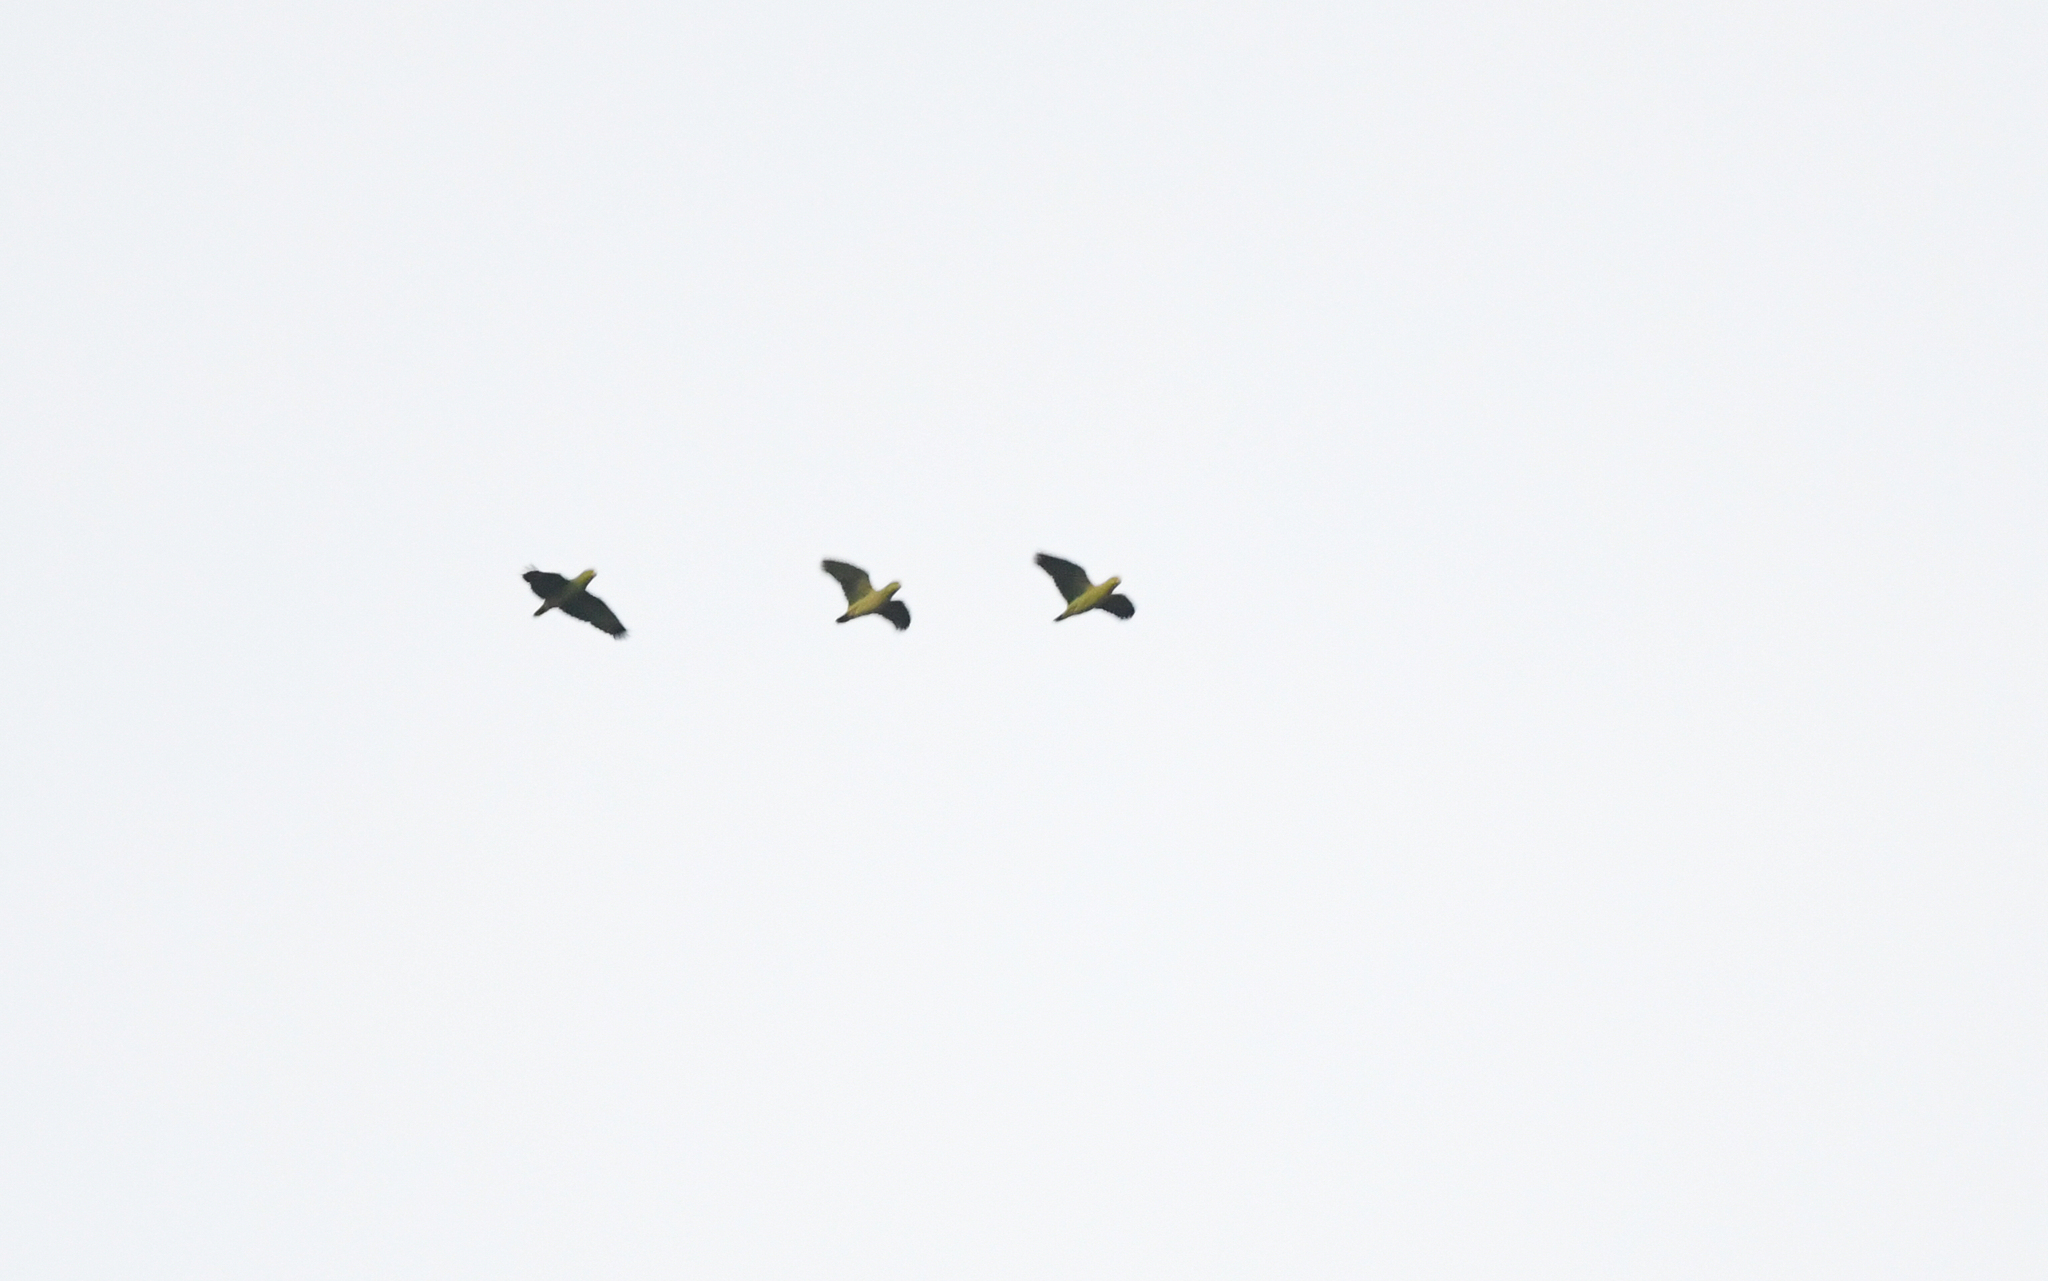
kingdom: Animalia
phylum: Chordata
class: Aves
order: Psittaciformes
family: Psittacidae
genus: Amazona
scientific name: Amazona mercenaria
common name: Scaly-naped amazon
